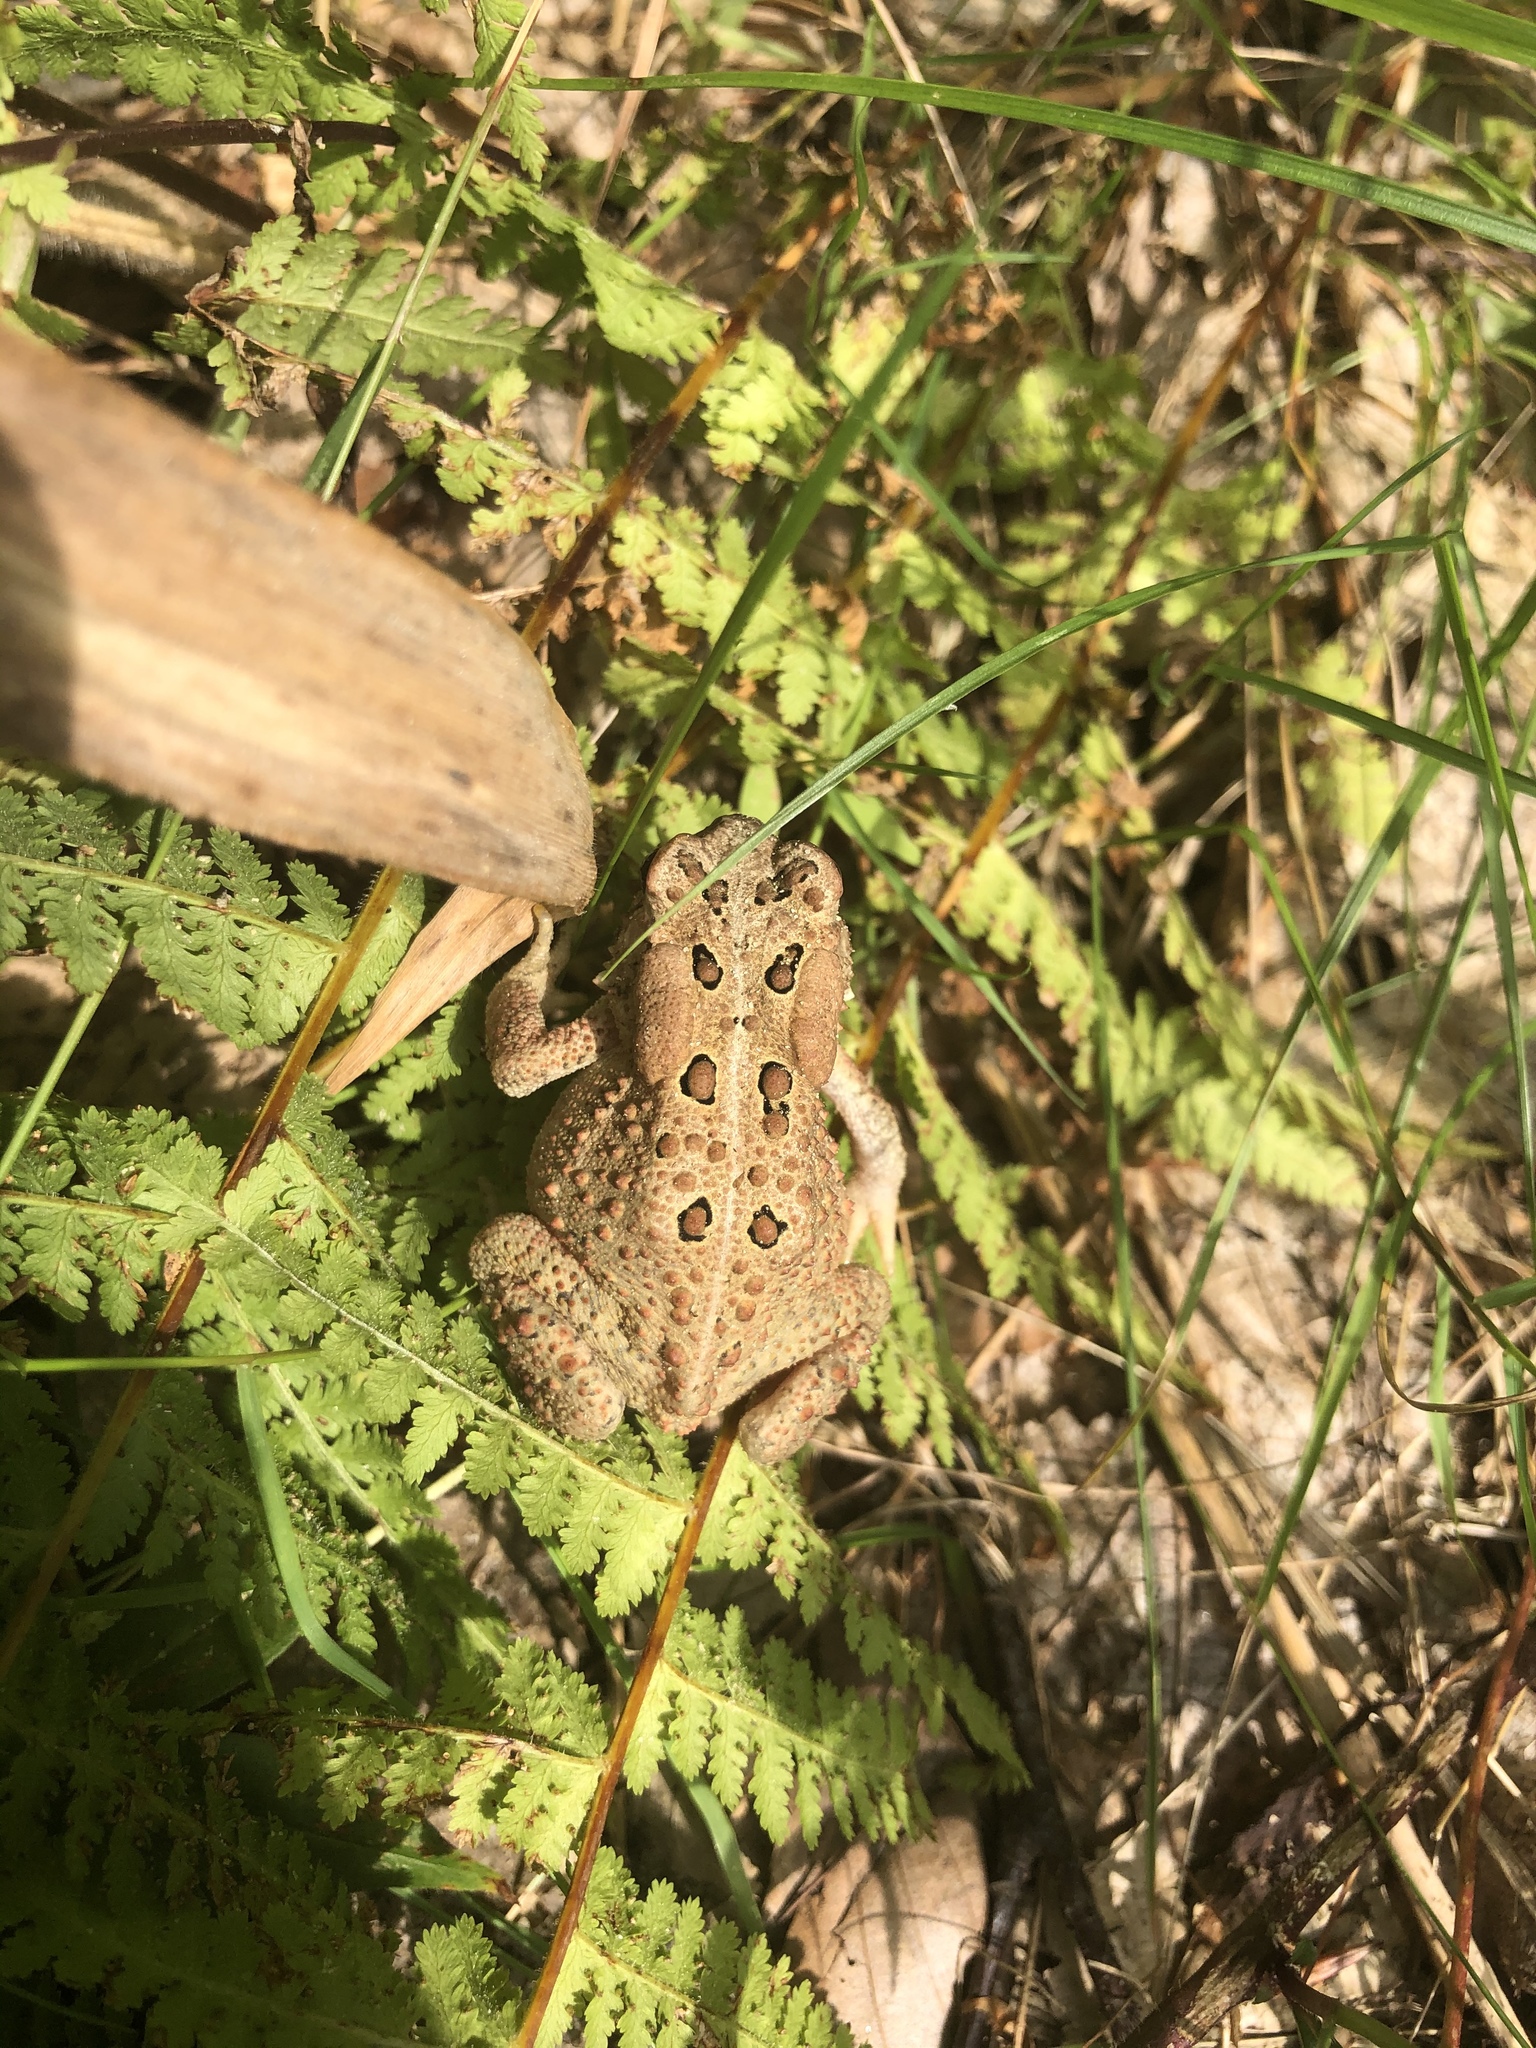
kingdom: Animalia
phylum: Chordata
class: Amphibia
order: Anura
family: Bufonidae
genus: Anaxyrus
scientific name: Anaxyrus americanus
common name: American toad
